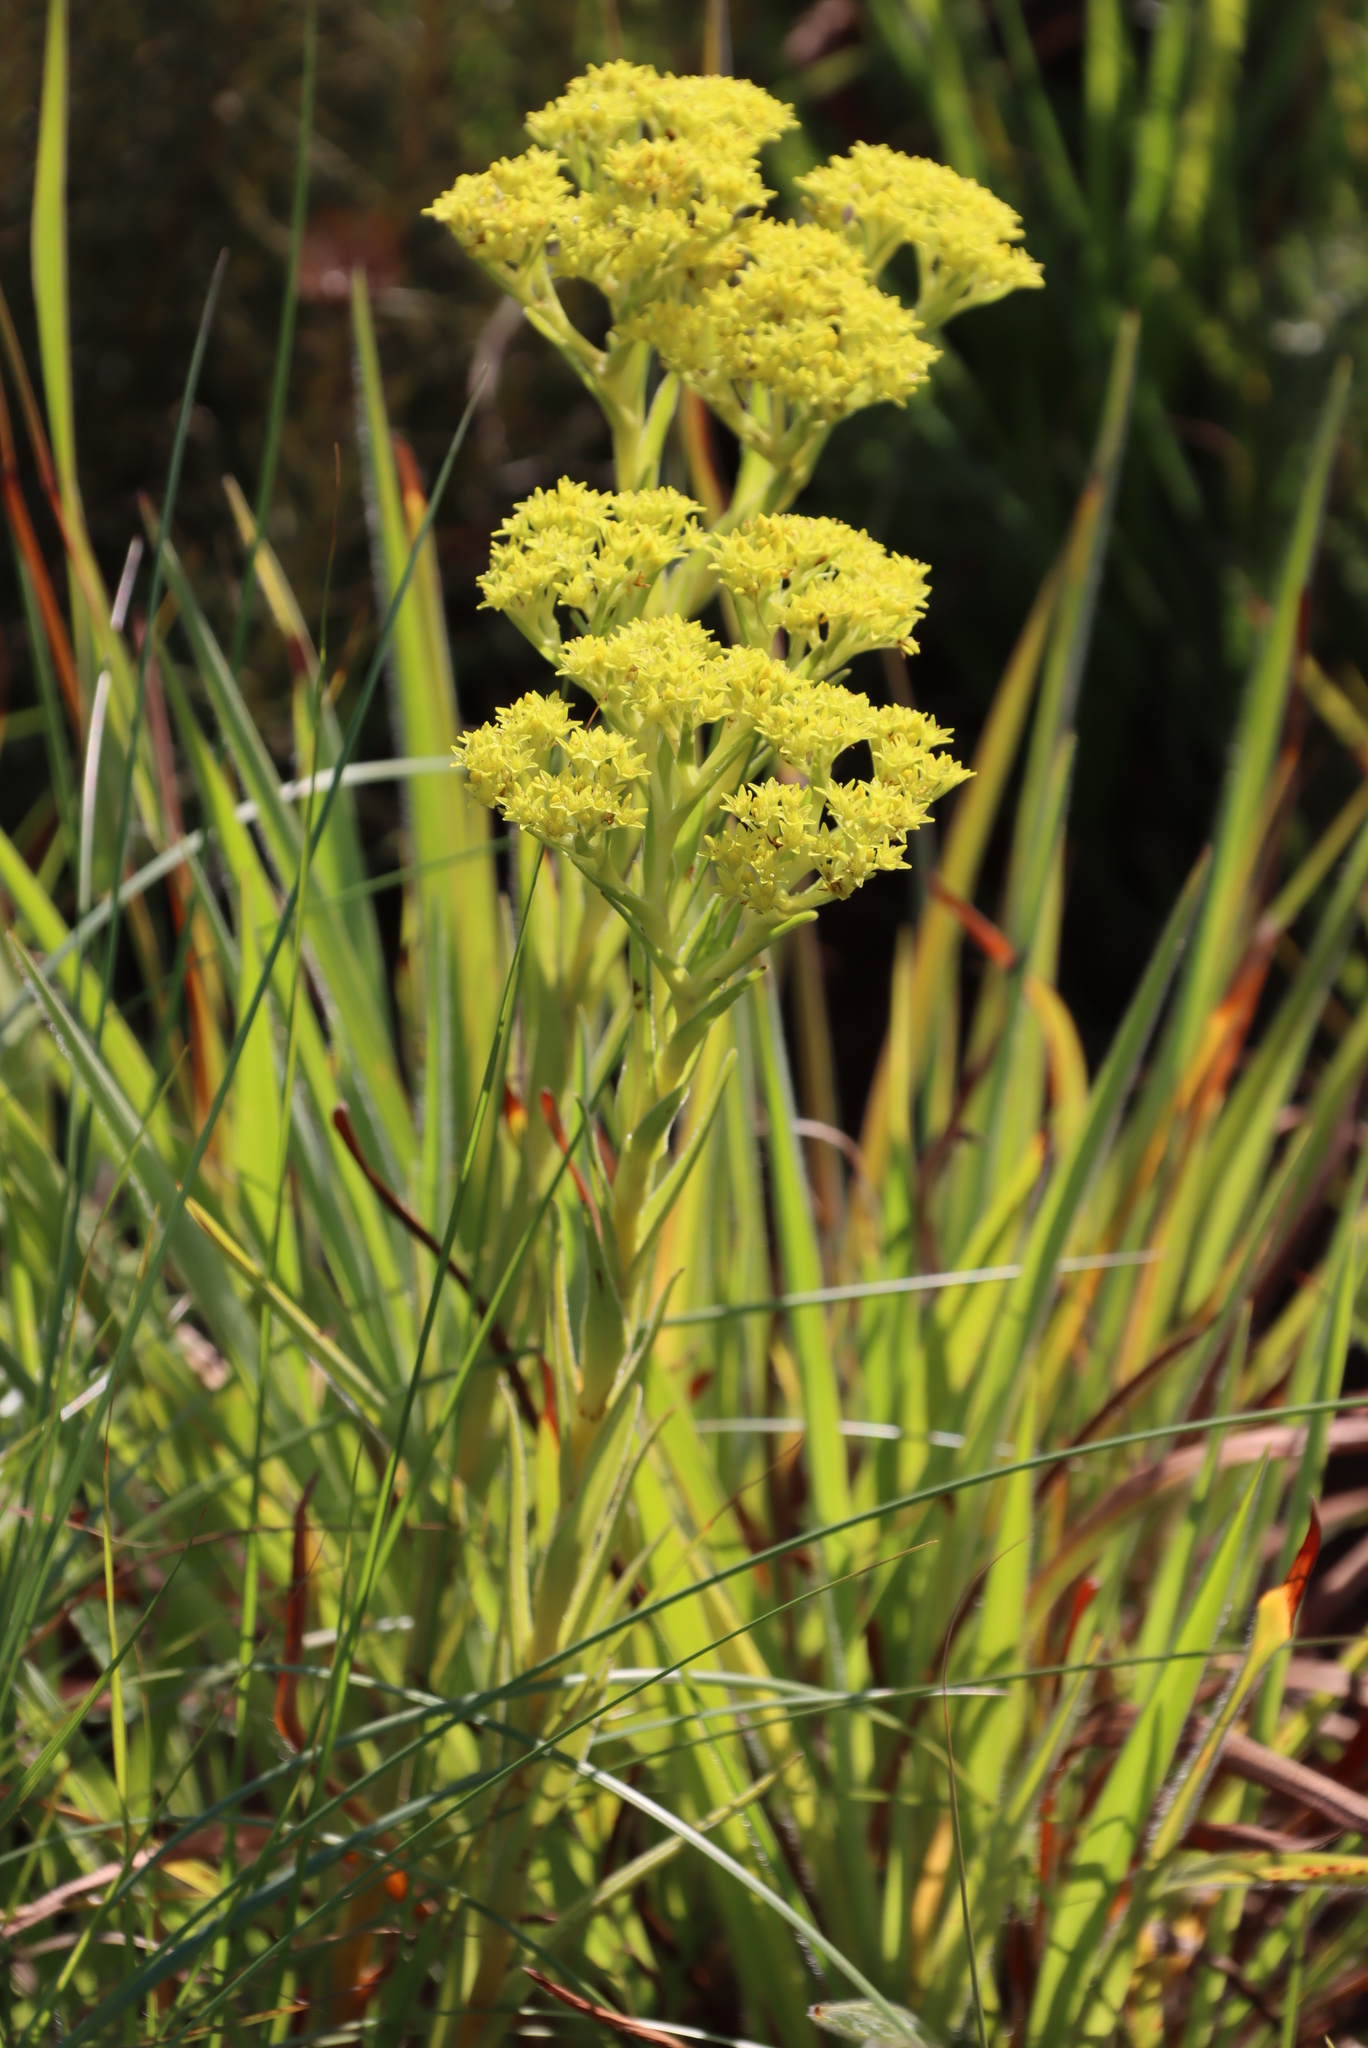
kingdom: Plantae
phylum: Tracheophyta
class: Magnoliopsida
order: Saxifragales
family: Crassulaceae
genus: Crassula
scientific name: Crassula vaginata
